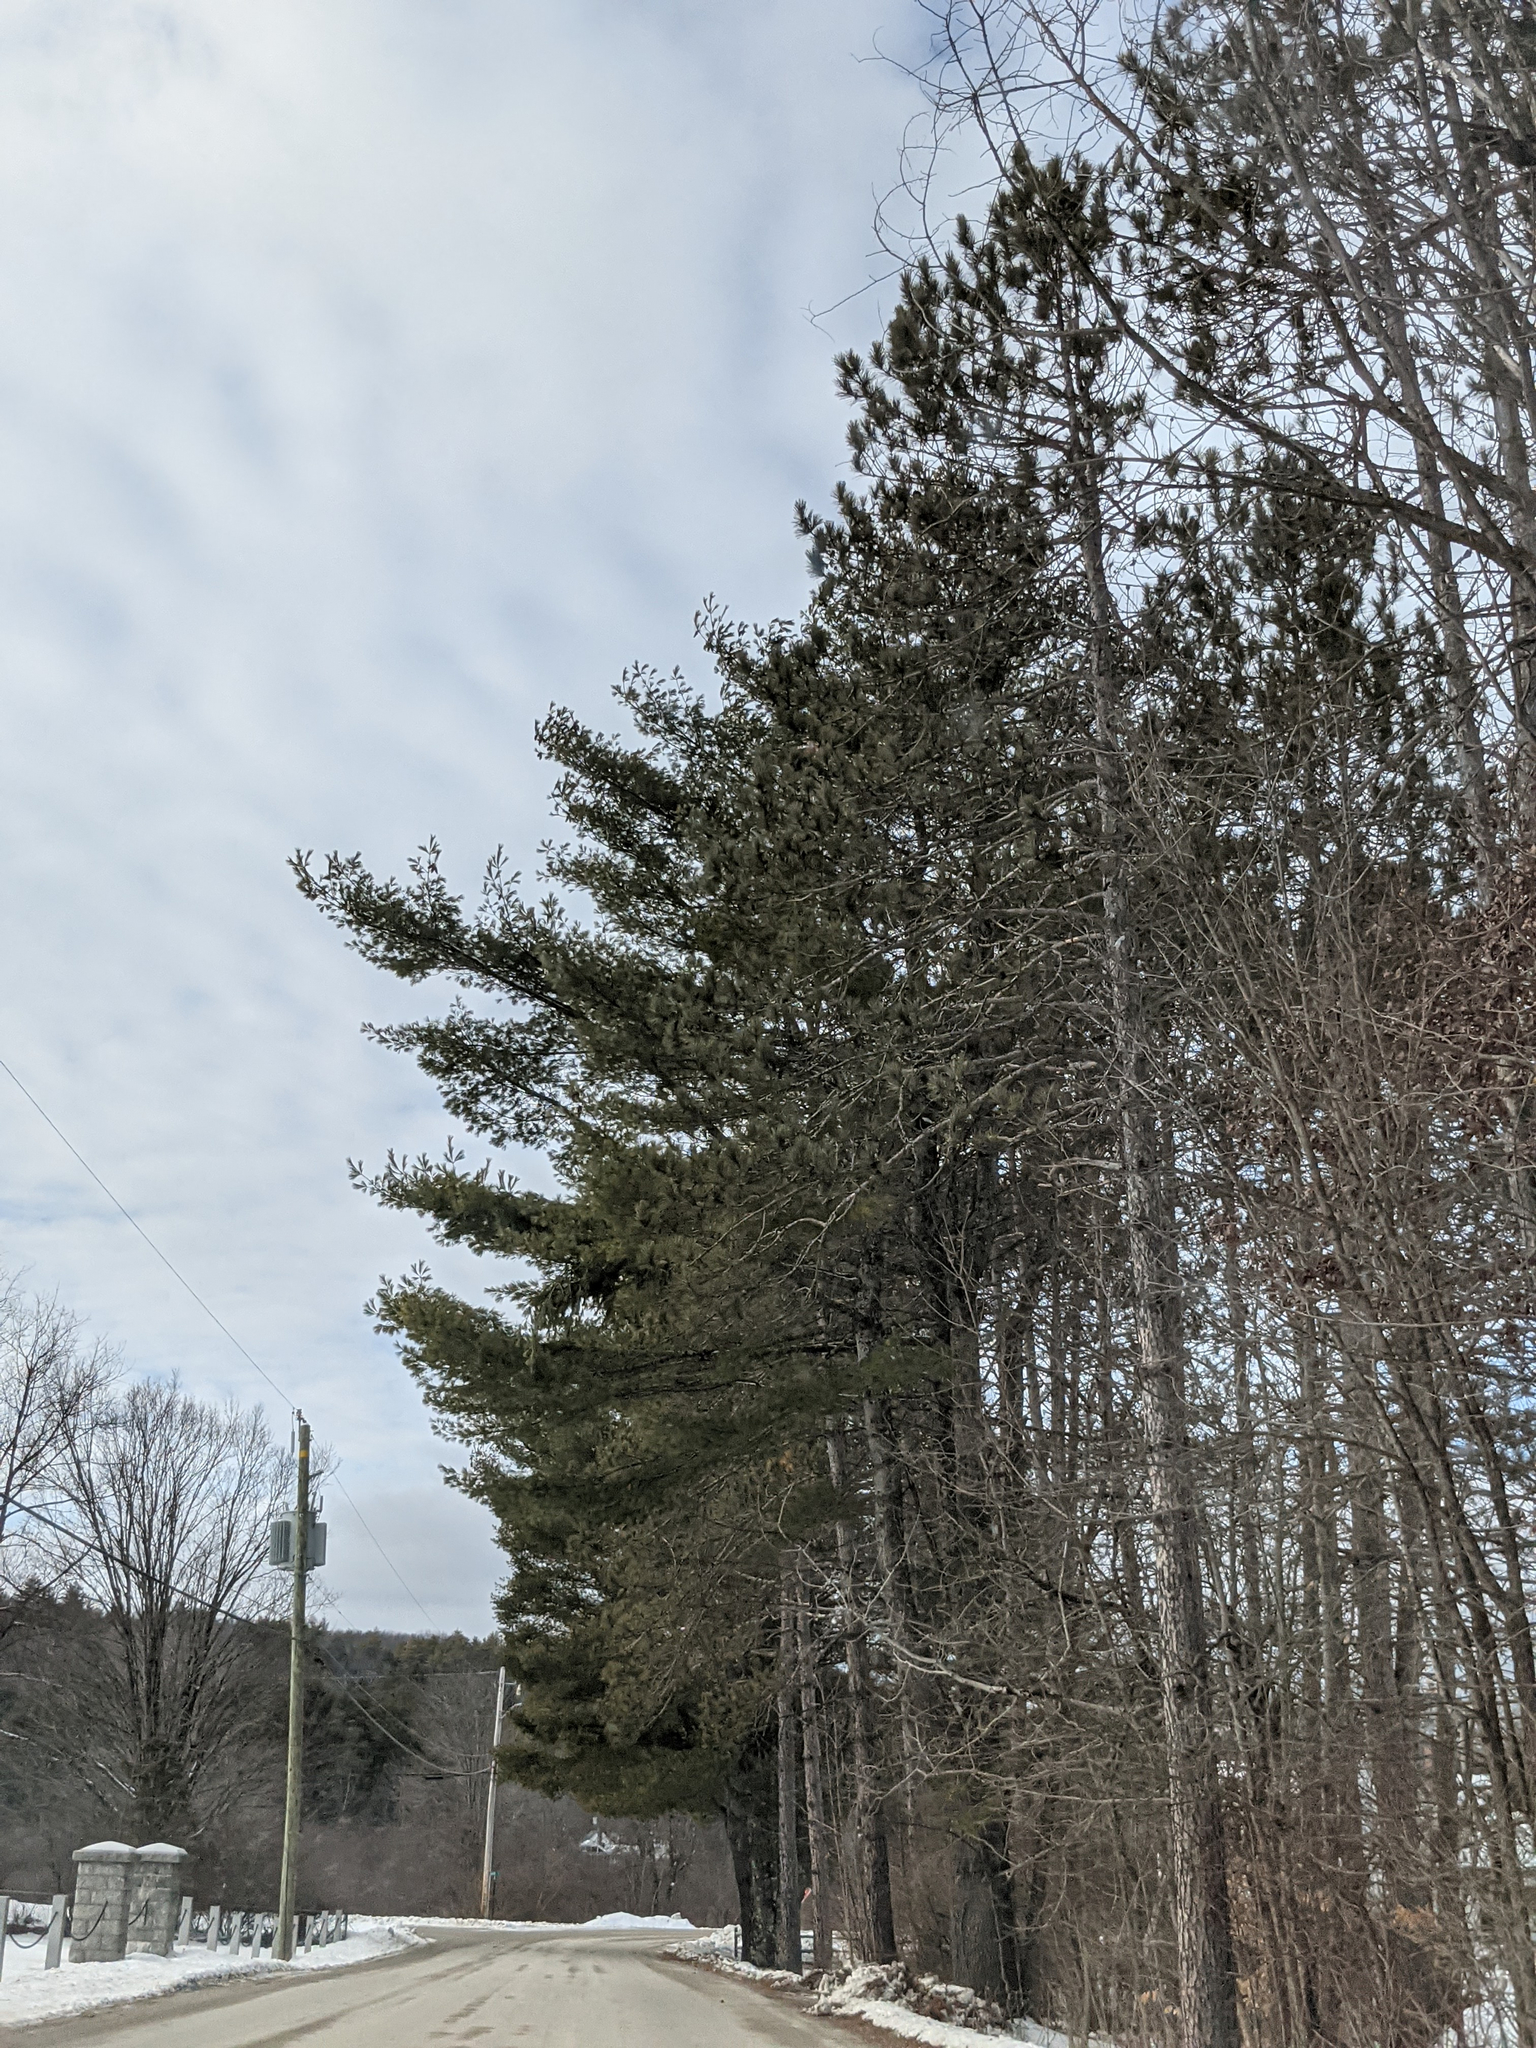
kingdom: Plantae
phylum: Tracheophyta
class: Pinopsida
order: Pinales
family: Pinaceae
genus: Pinus
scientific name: Pinus strobus
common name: Weymouth pine
